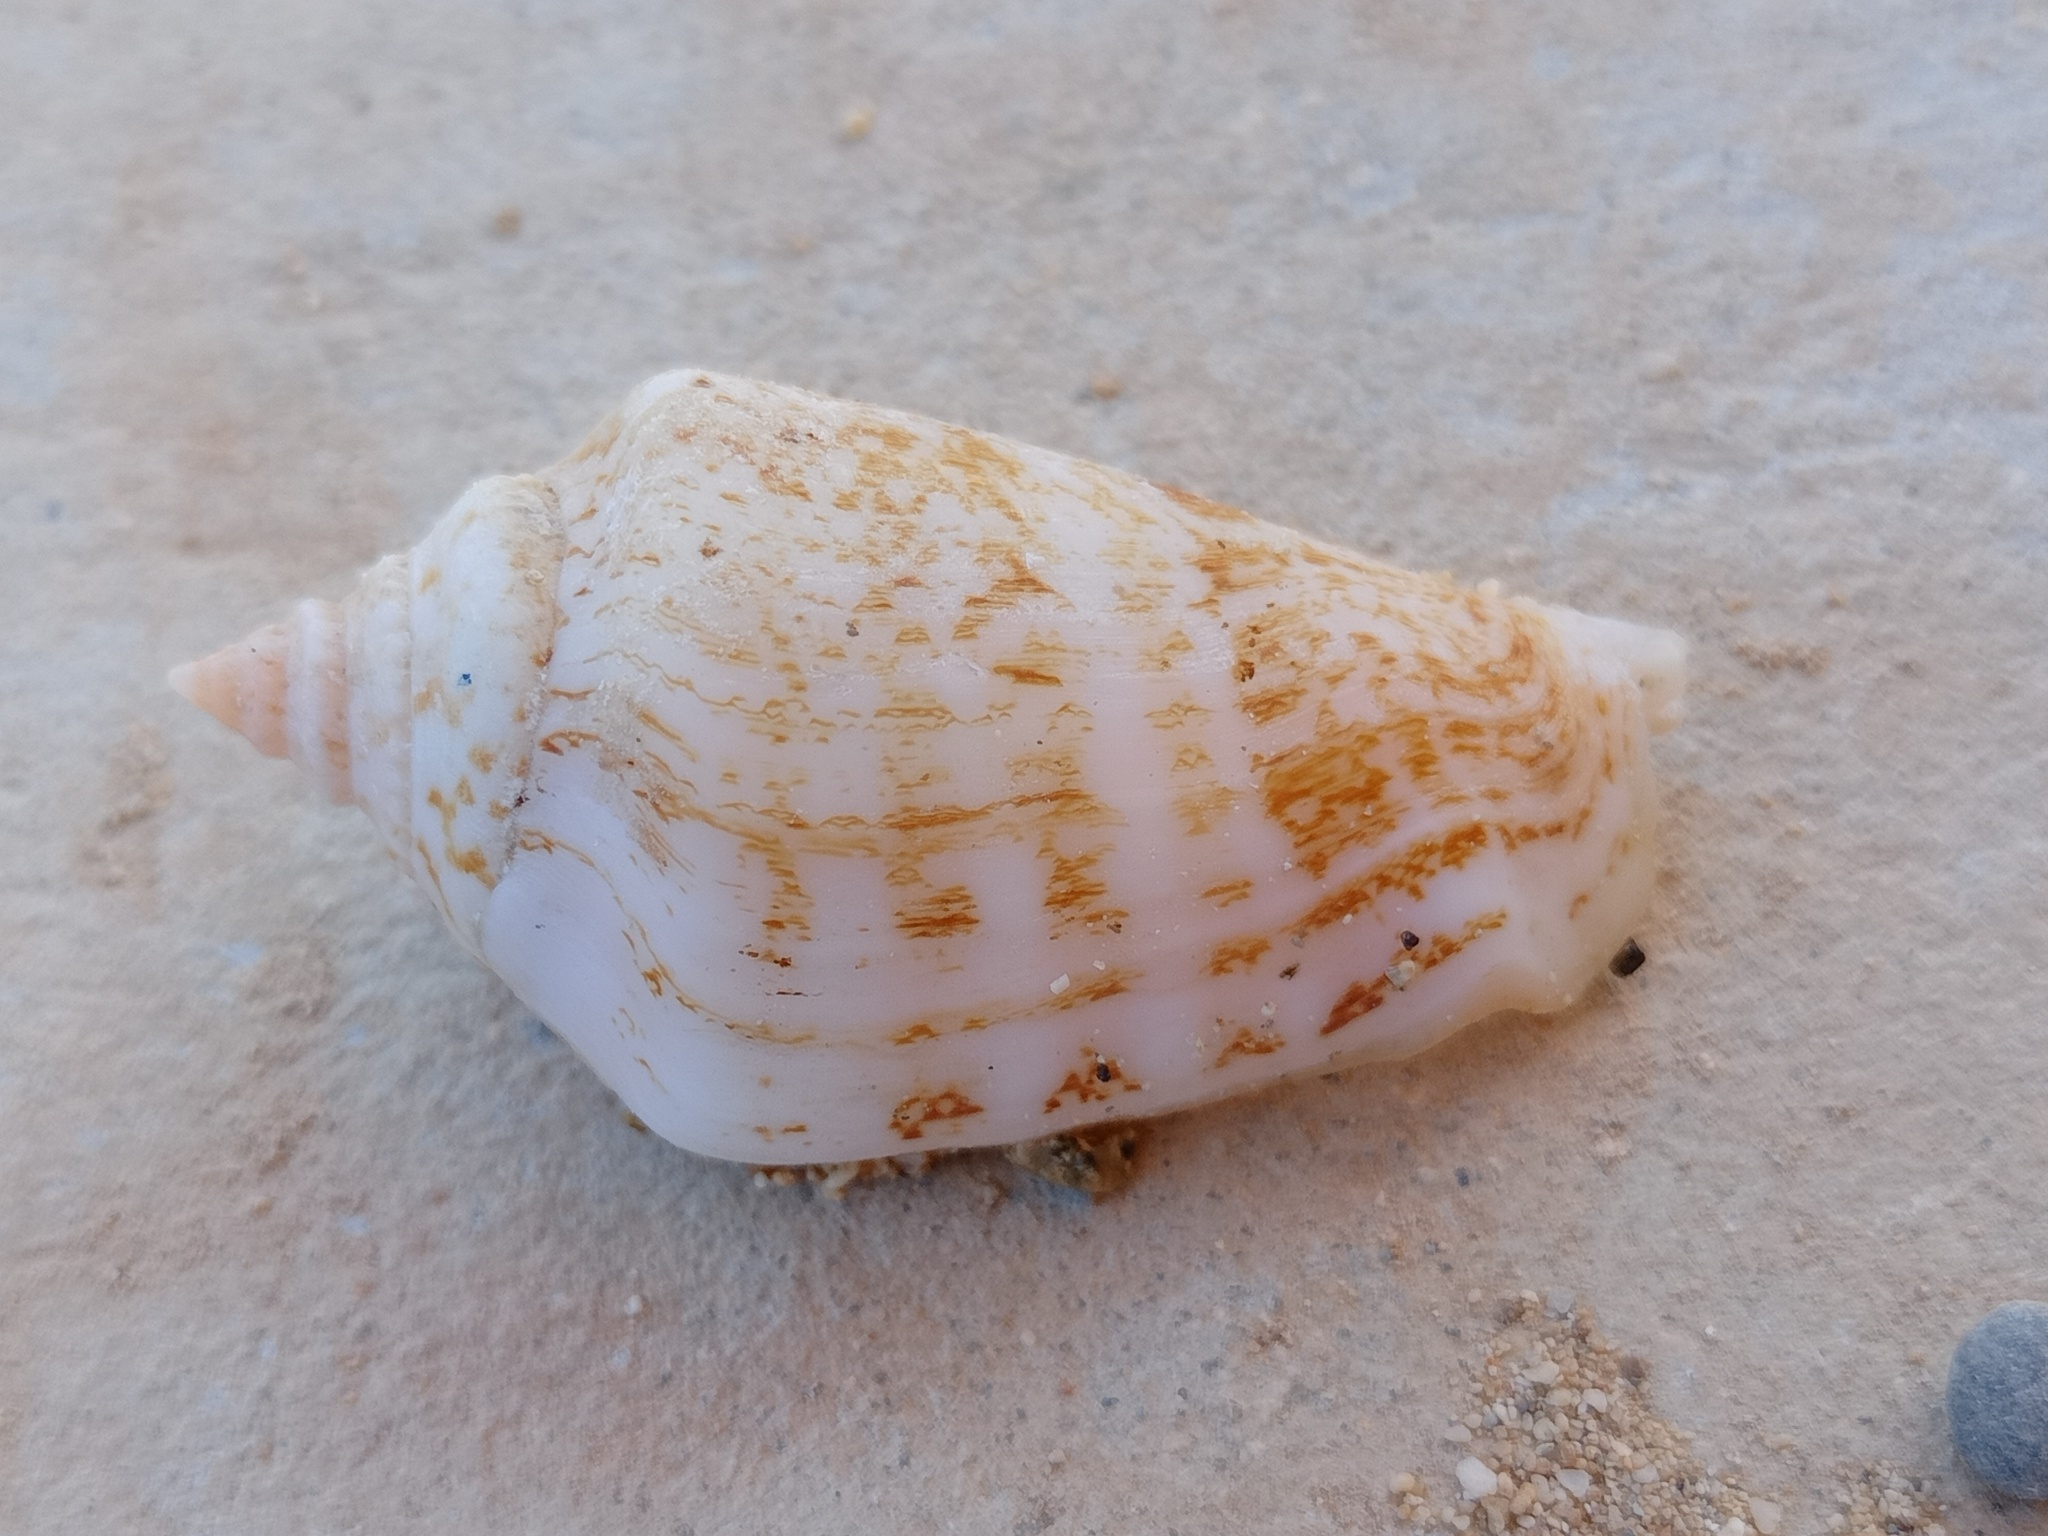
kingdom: Animalia
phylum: Mollusca
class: Gastropoda
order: Littorinimorpha
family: Strombidae
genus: Conomurex
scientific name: Conomurex persicus
